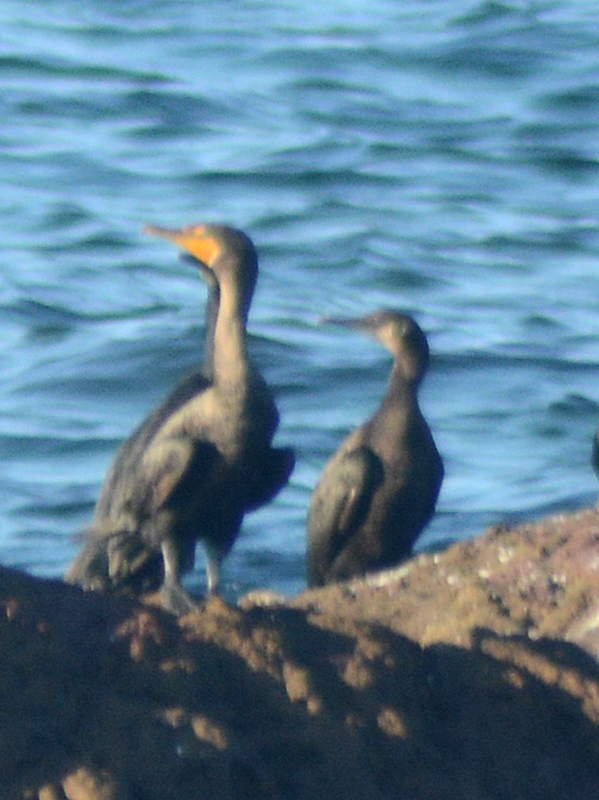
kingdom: Animalia
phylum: Chordata
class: Aves
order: Suliformes
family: Phalacrocoracidae
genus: Phalacrocorax
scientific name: Phalacrocorax auritus
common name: Double-crested cormorant
